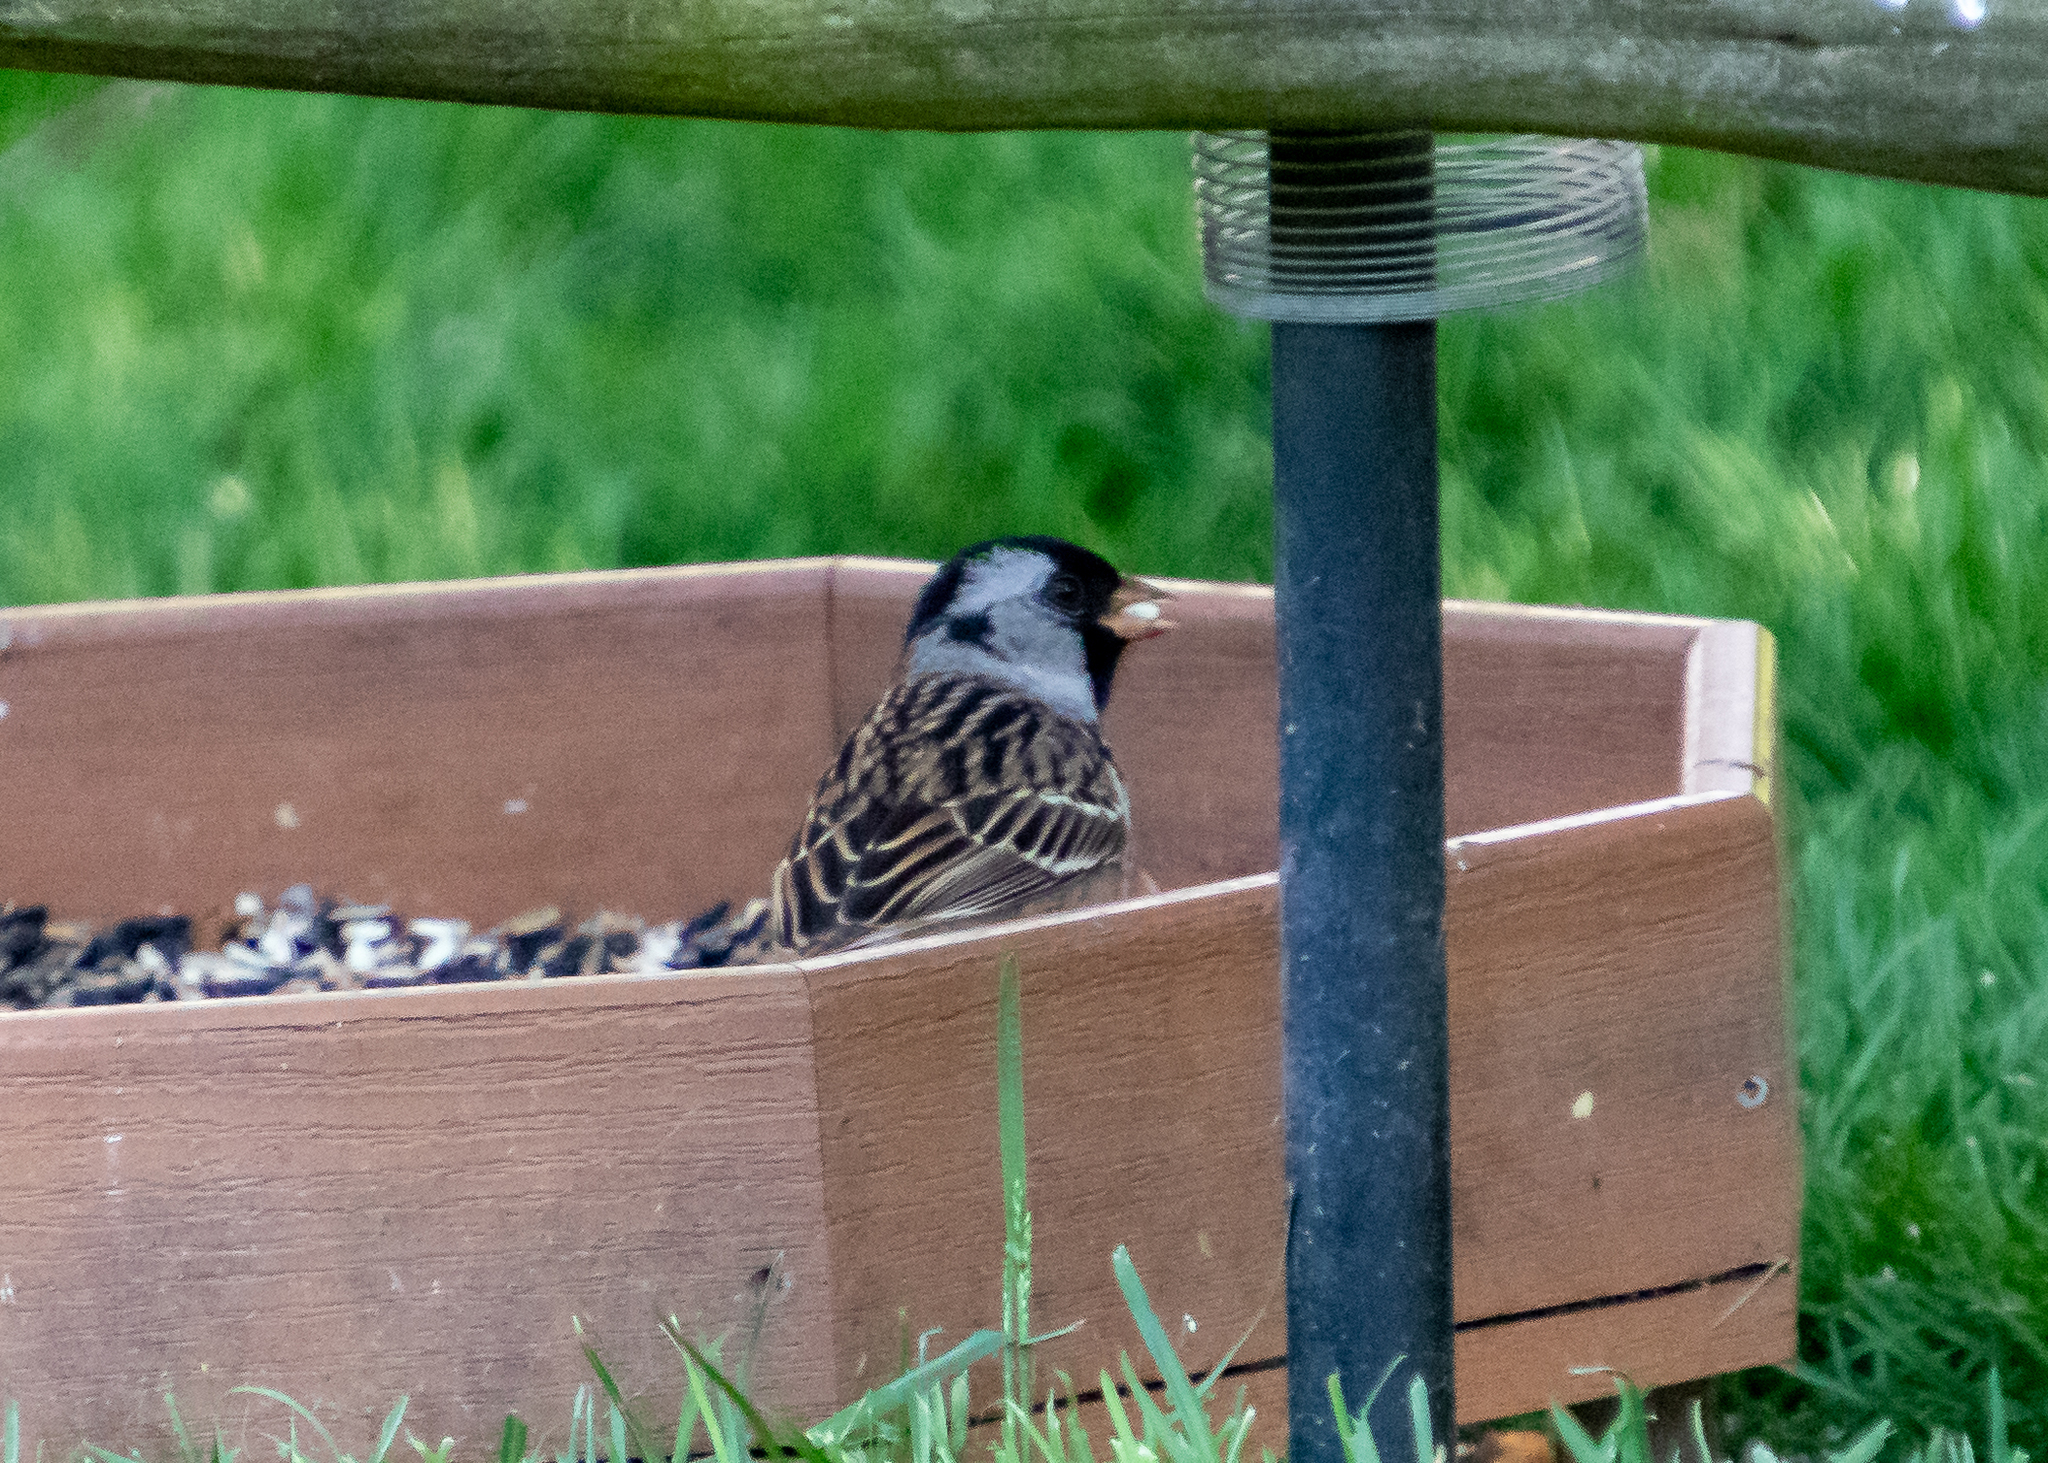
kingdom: Animalia
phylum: Chordata
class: Aves
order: Passeriformes
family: Passerellidae
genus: Zonotrichia
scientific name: Zonotrichia querula
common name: Harris's sparrow
